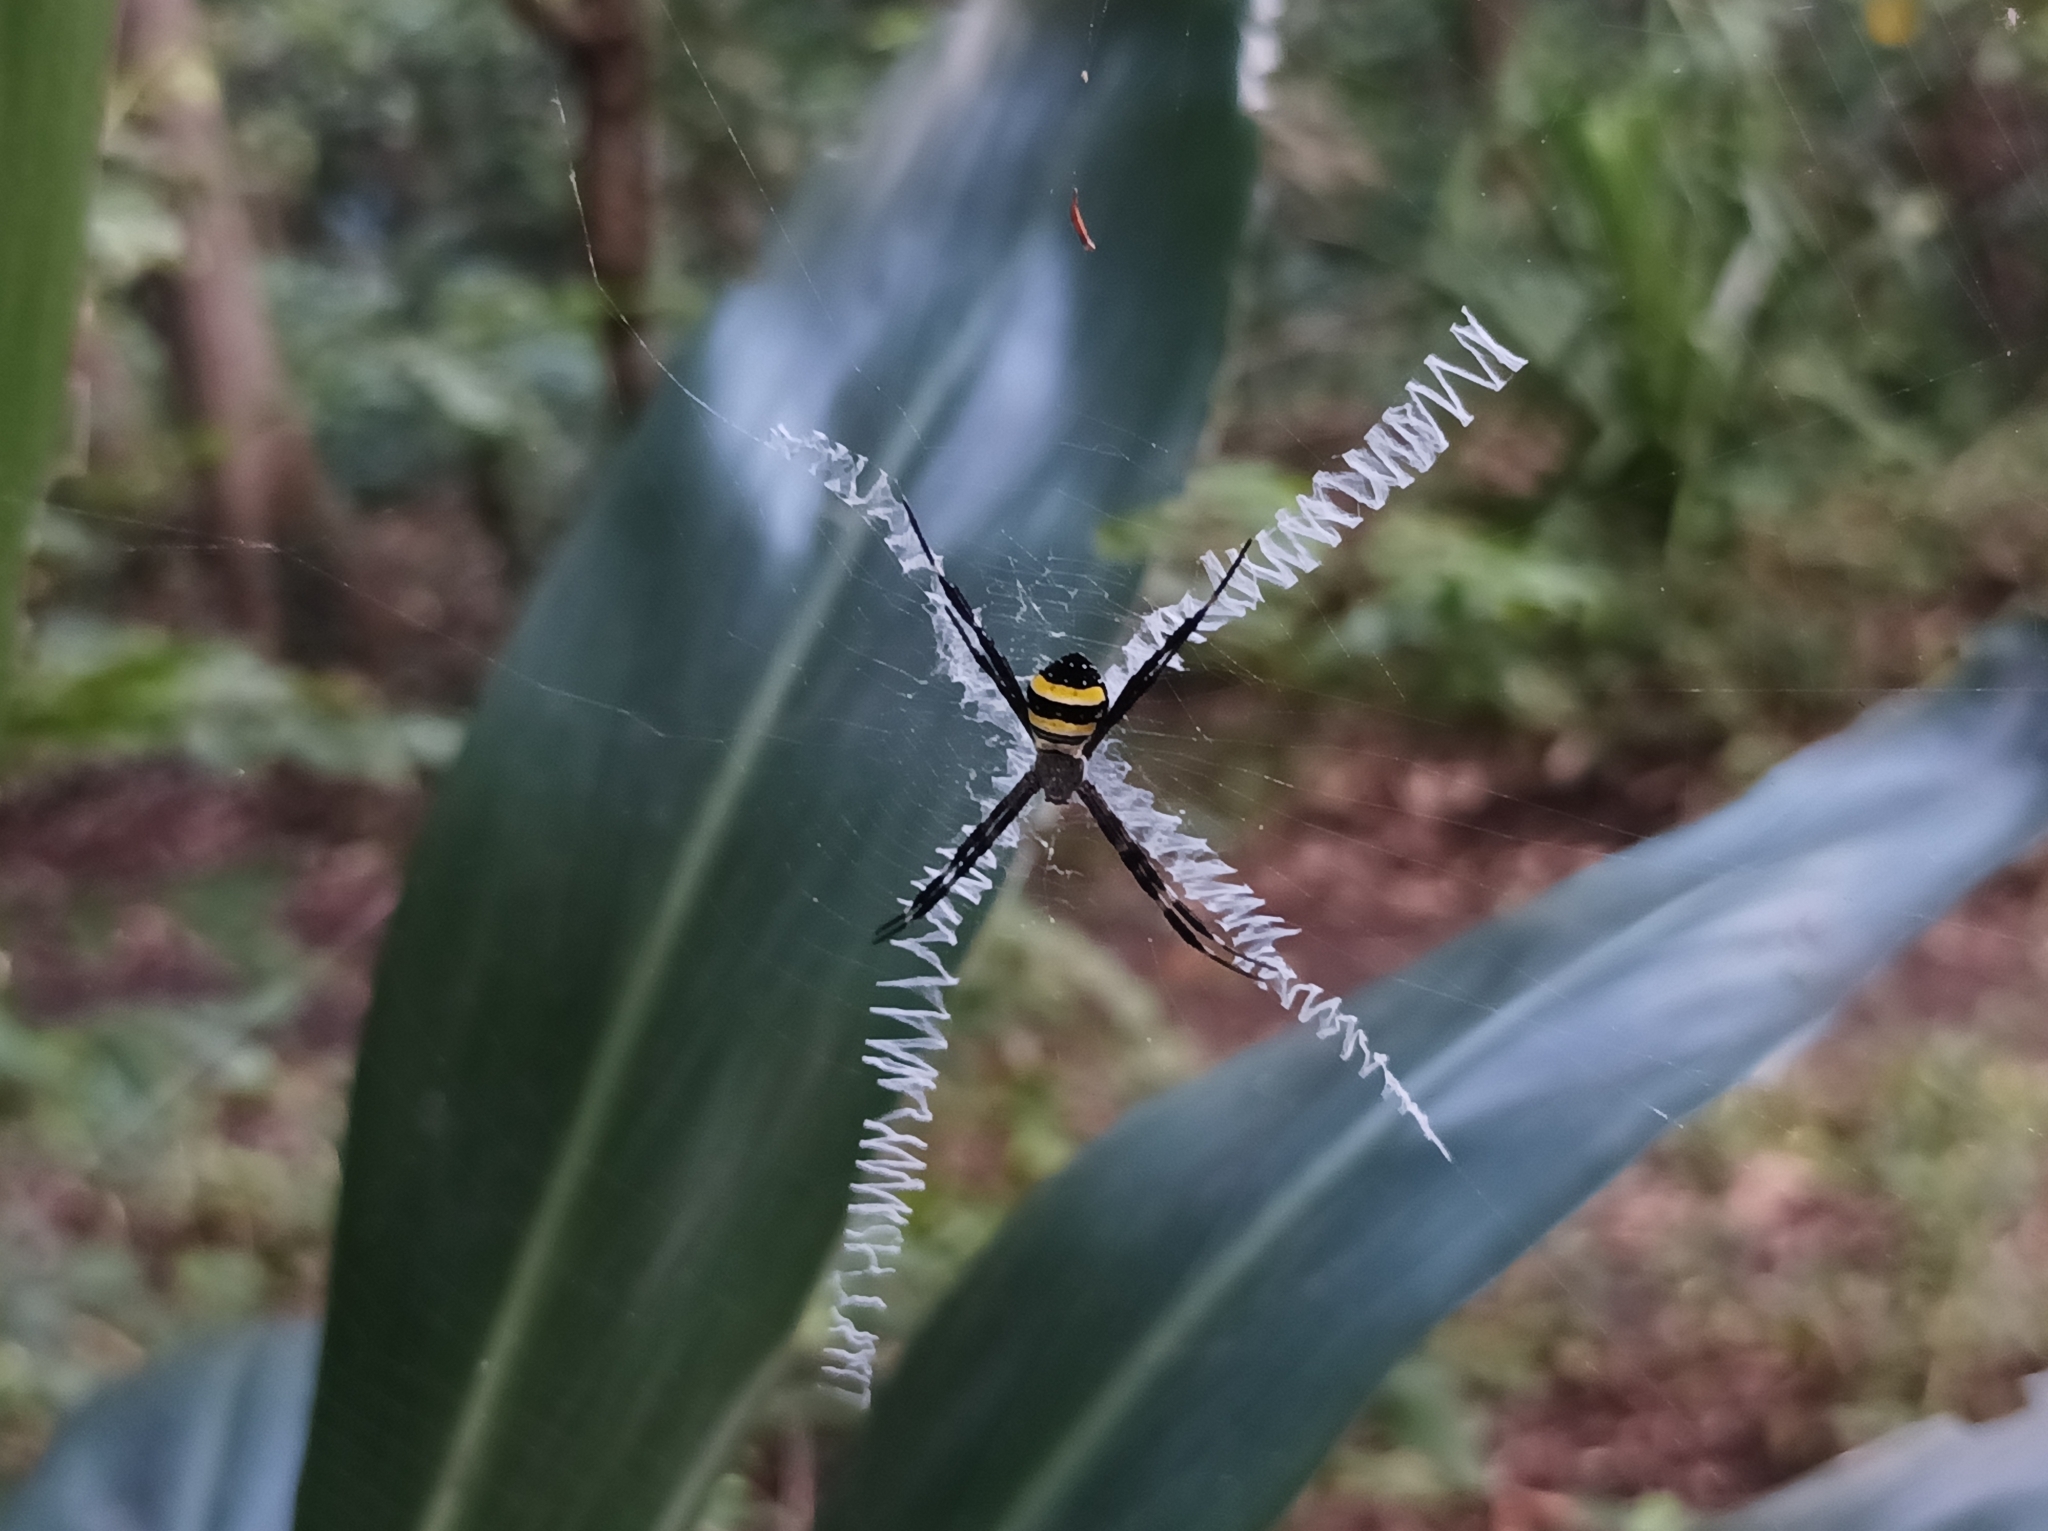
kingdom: Animalia
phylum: Arthropoda
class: Arachnida
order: Araneae
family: Araneidae
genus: Argiope
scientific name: Argiope caledonia
